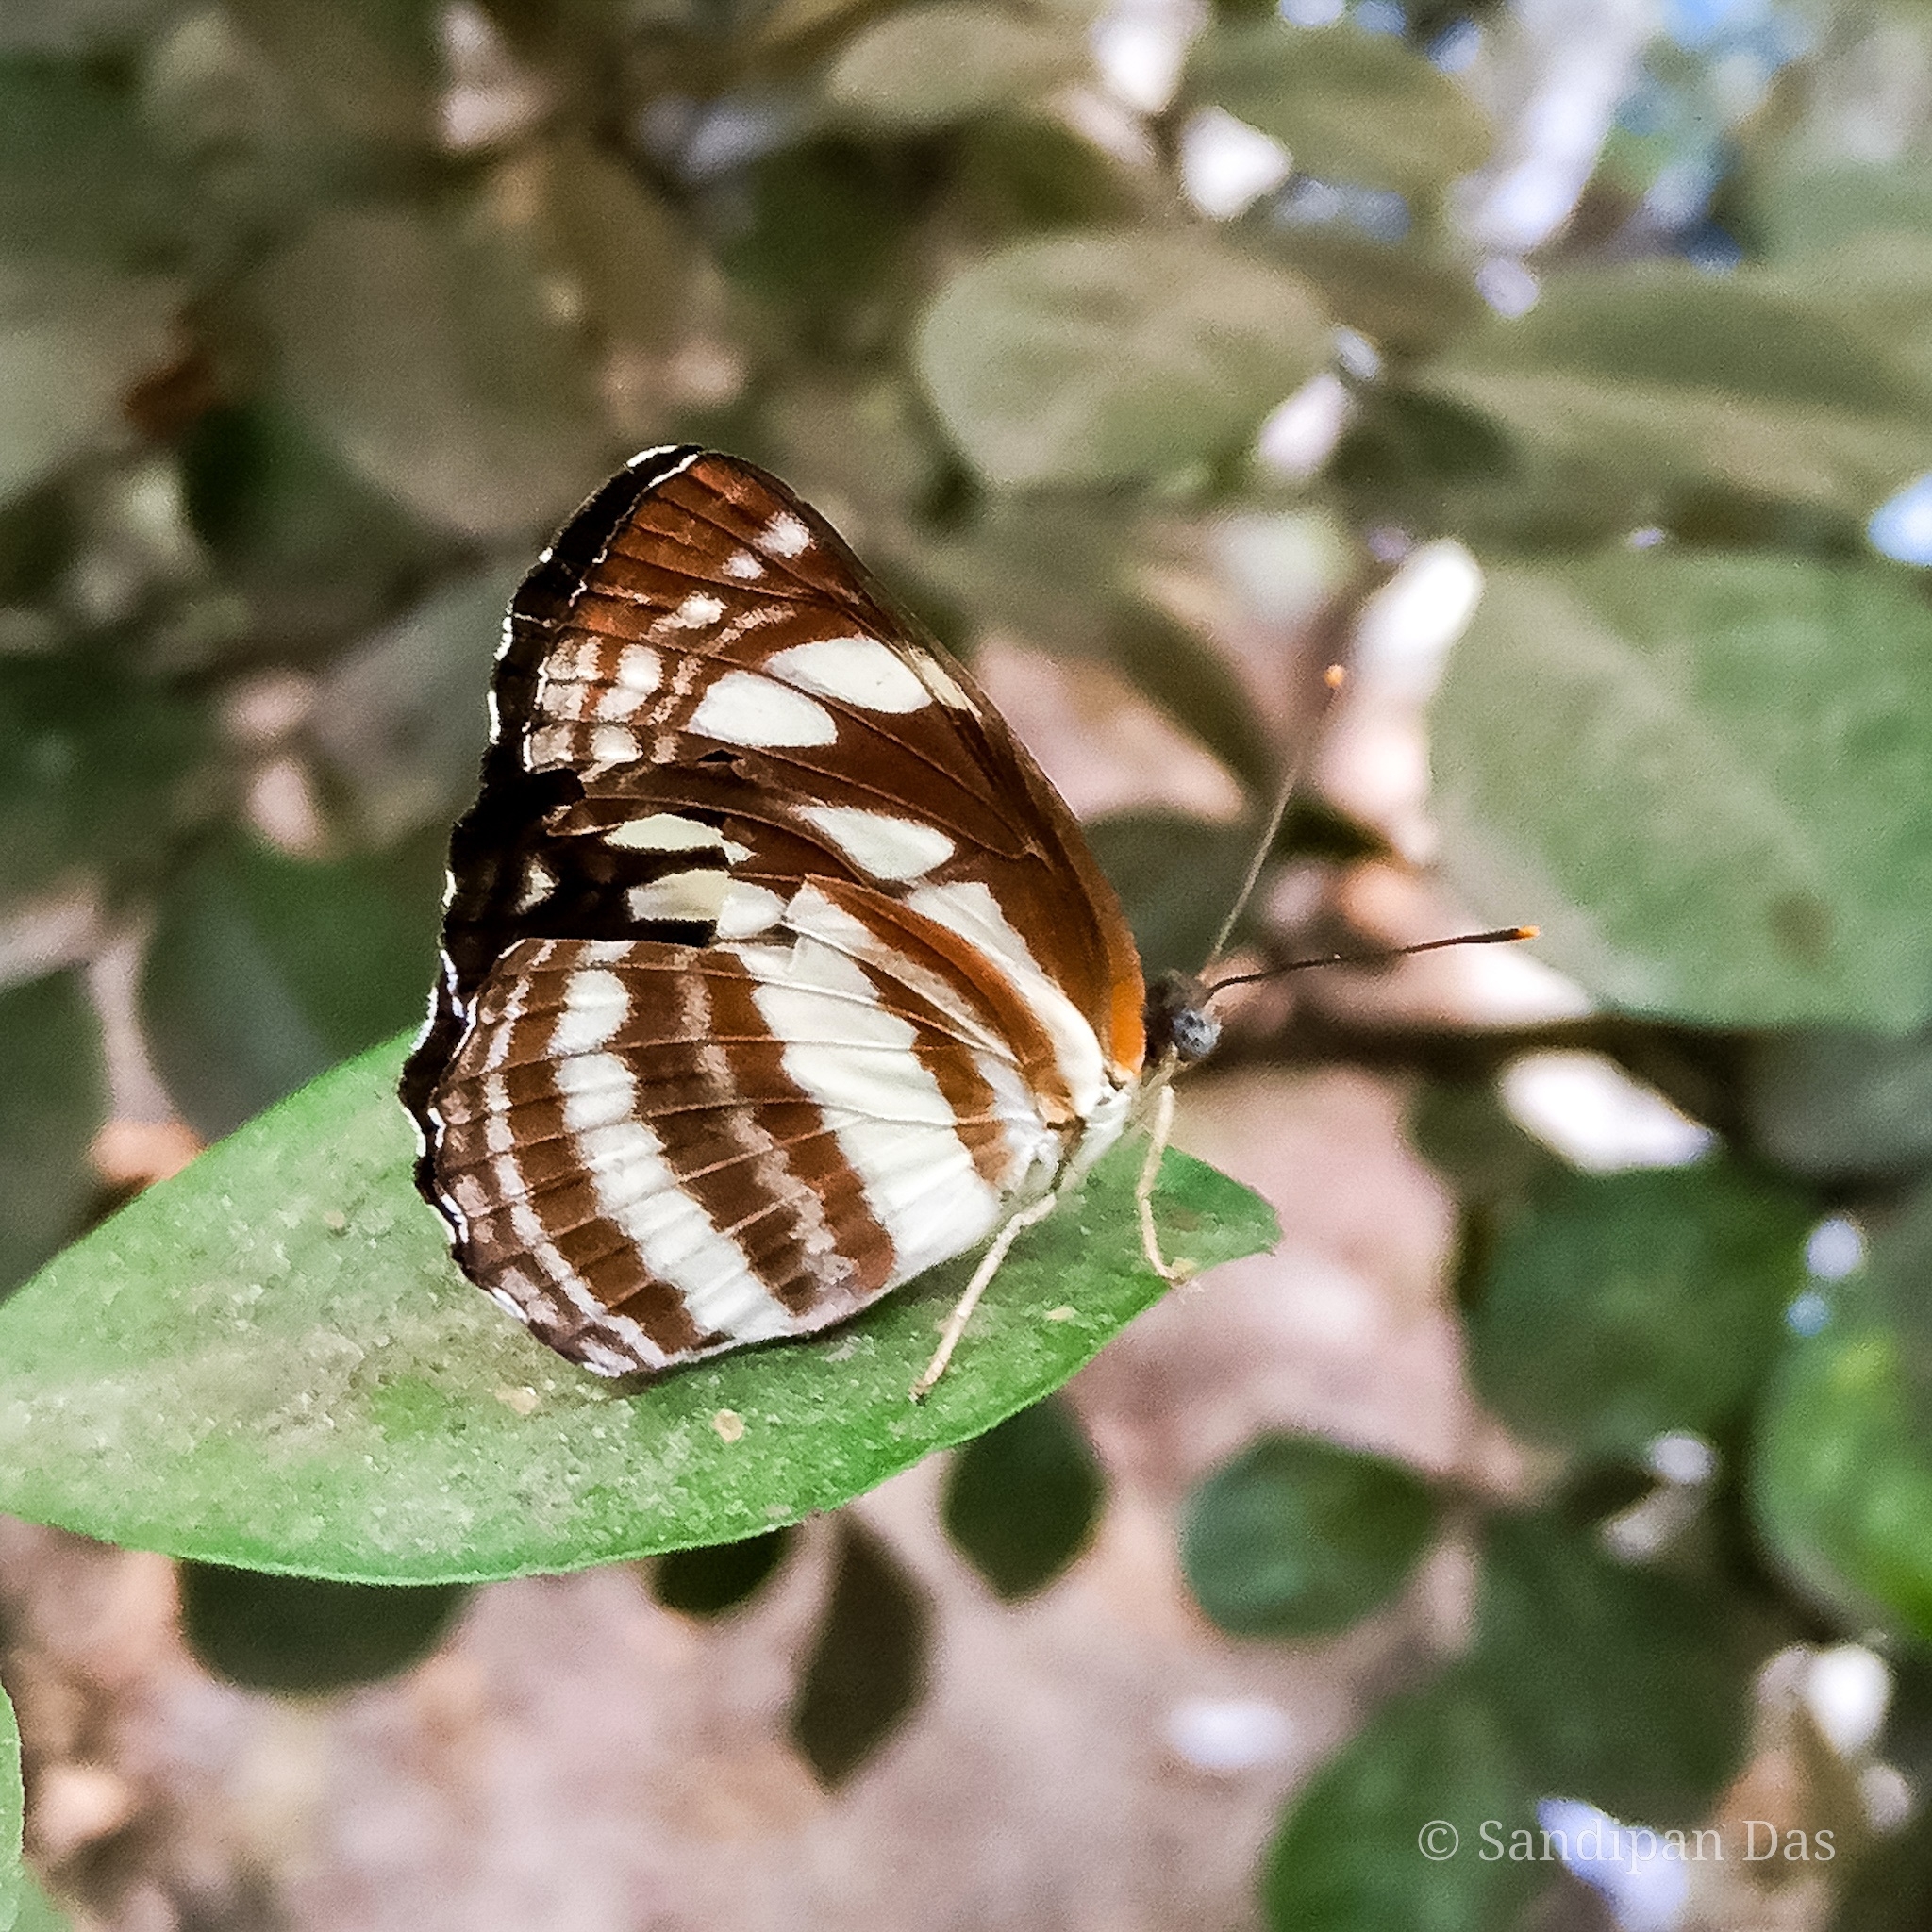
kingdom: Animalia
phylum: Arthropoda
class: Insecta
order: Lepidoptera
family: Nymphalidae
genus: Neptis
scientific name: Neptis hylas
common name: Common sailer
